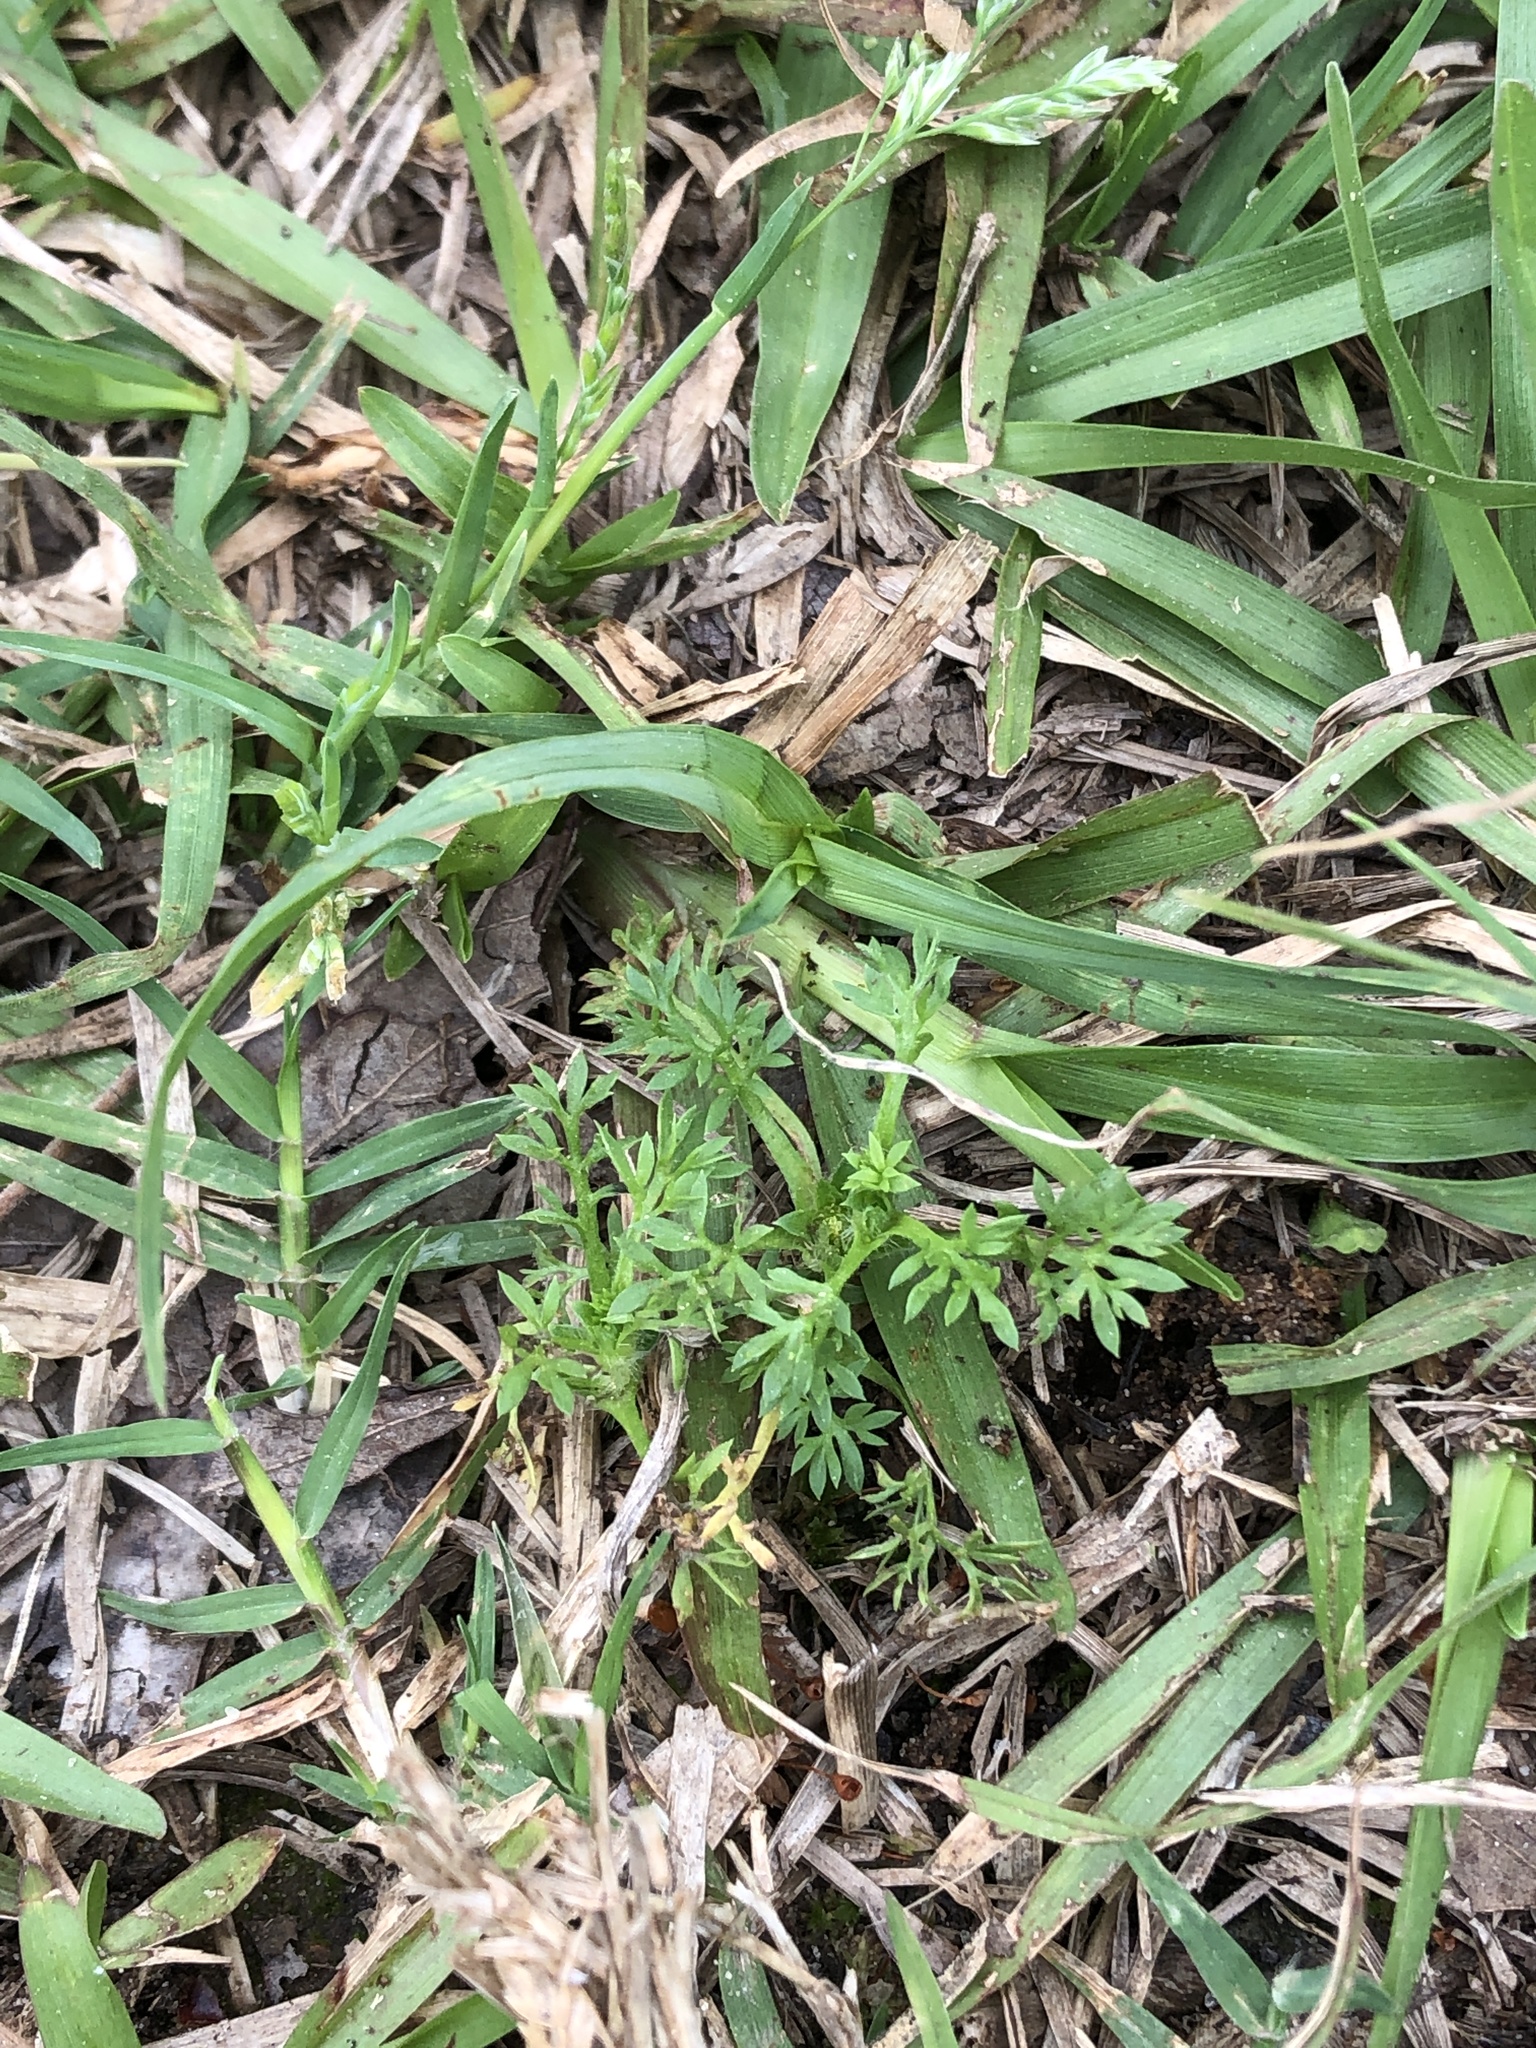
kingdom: Plantae
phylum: Tracheophyta
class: Magnoliopsida
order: Asterales
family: Asteraceae
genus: Soliva
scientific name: Soliva sessilis
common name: Field burrweed
